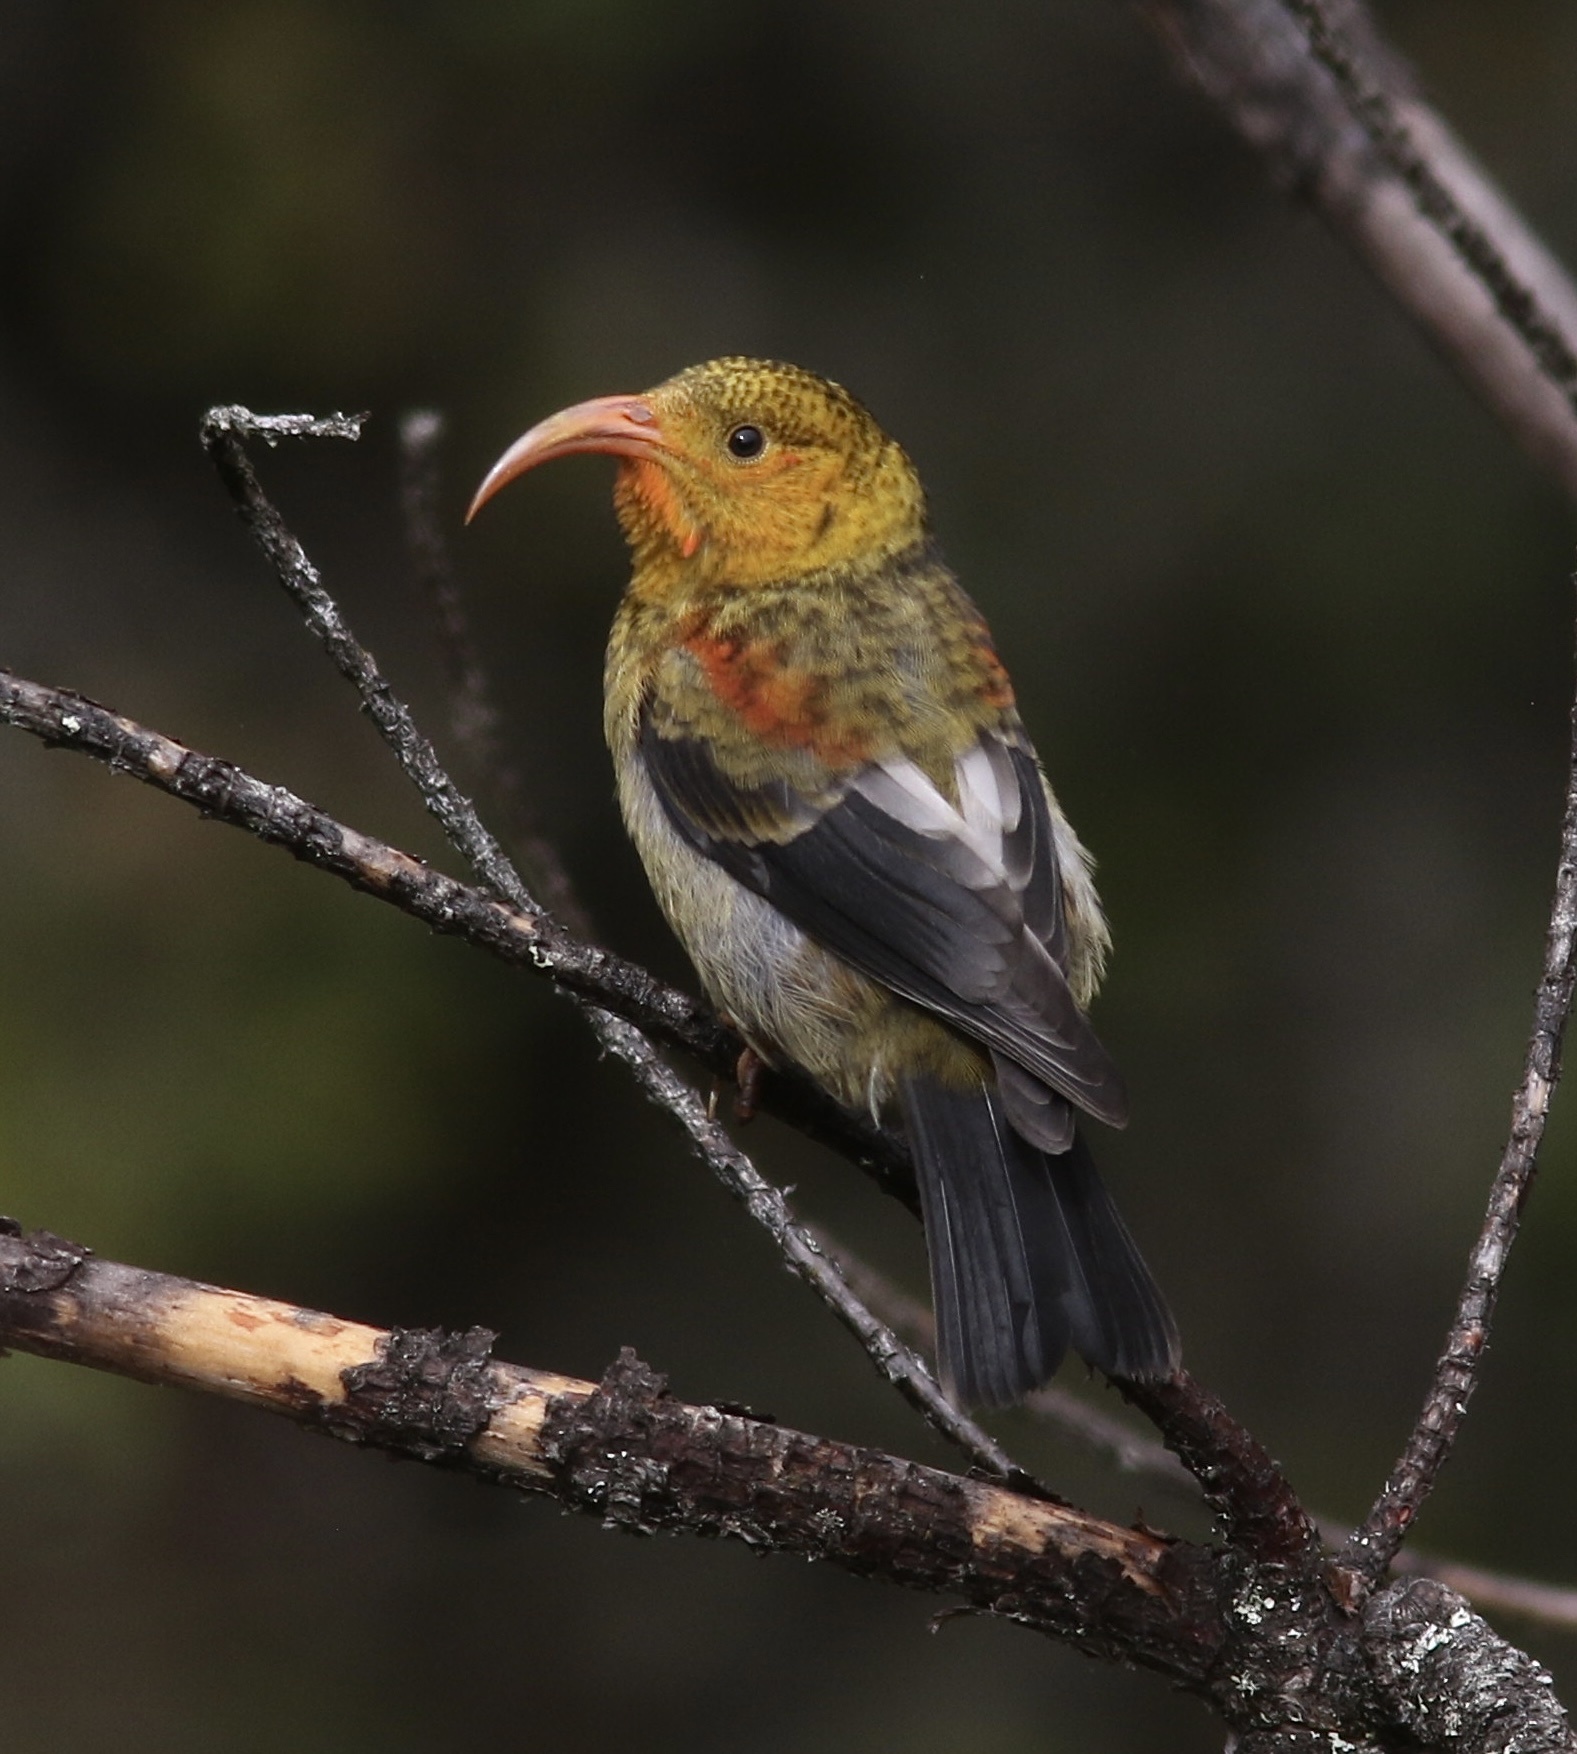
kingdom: Animalia
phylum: Chordata
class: Aves
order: Passeriformes
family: Fringillidae
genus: Vestiaria
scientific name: Vestiaria coccinea
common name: Iiwi
